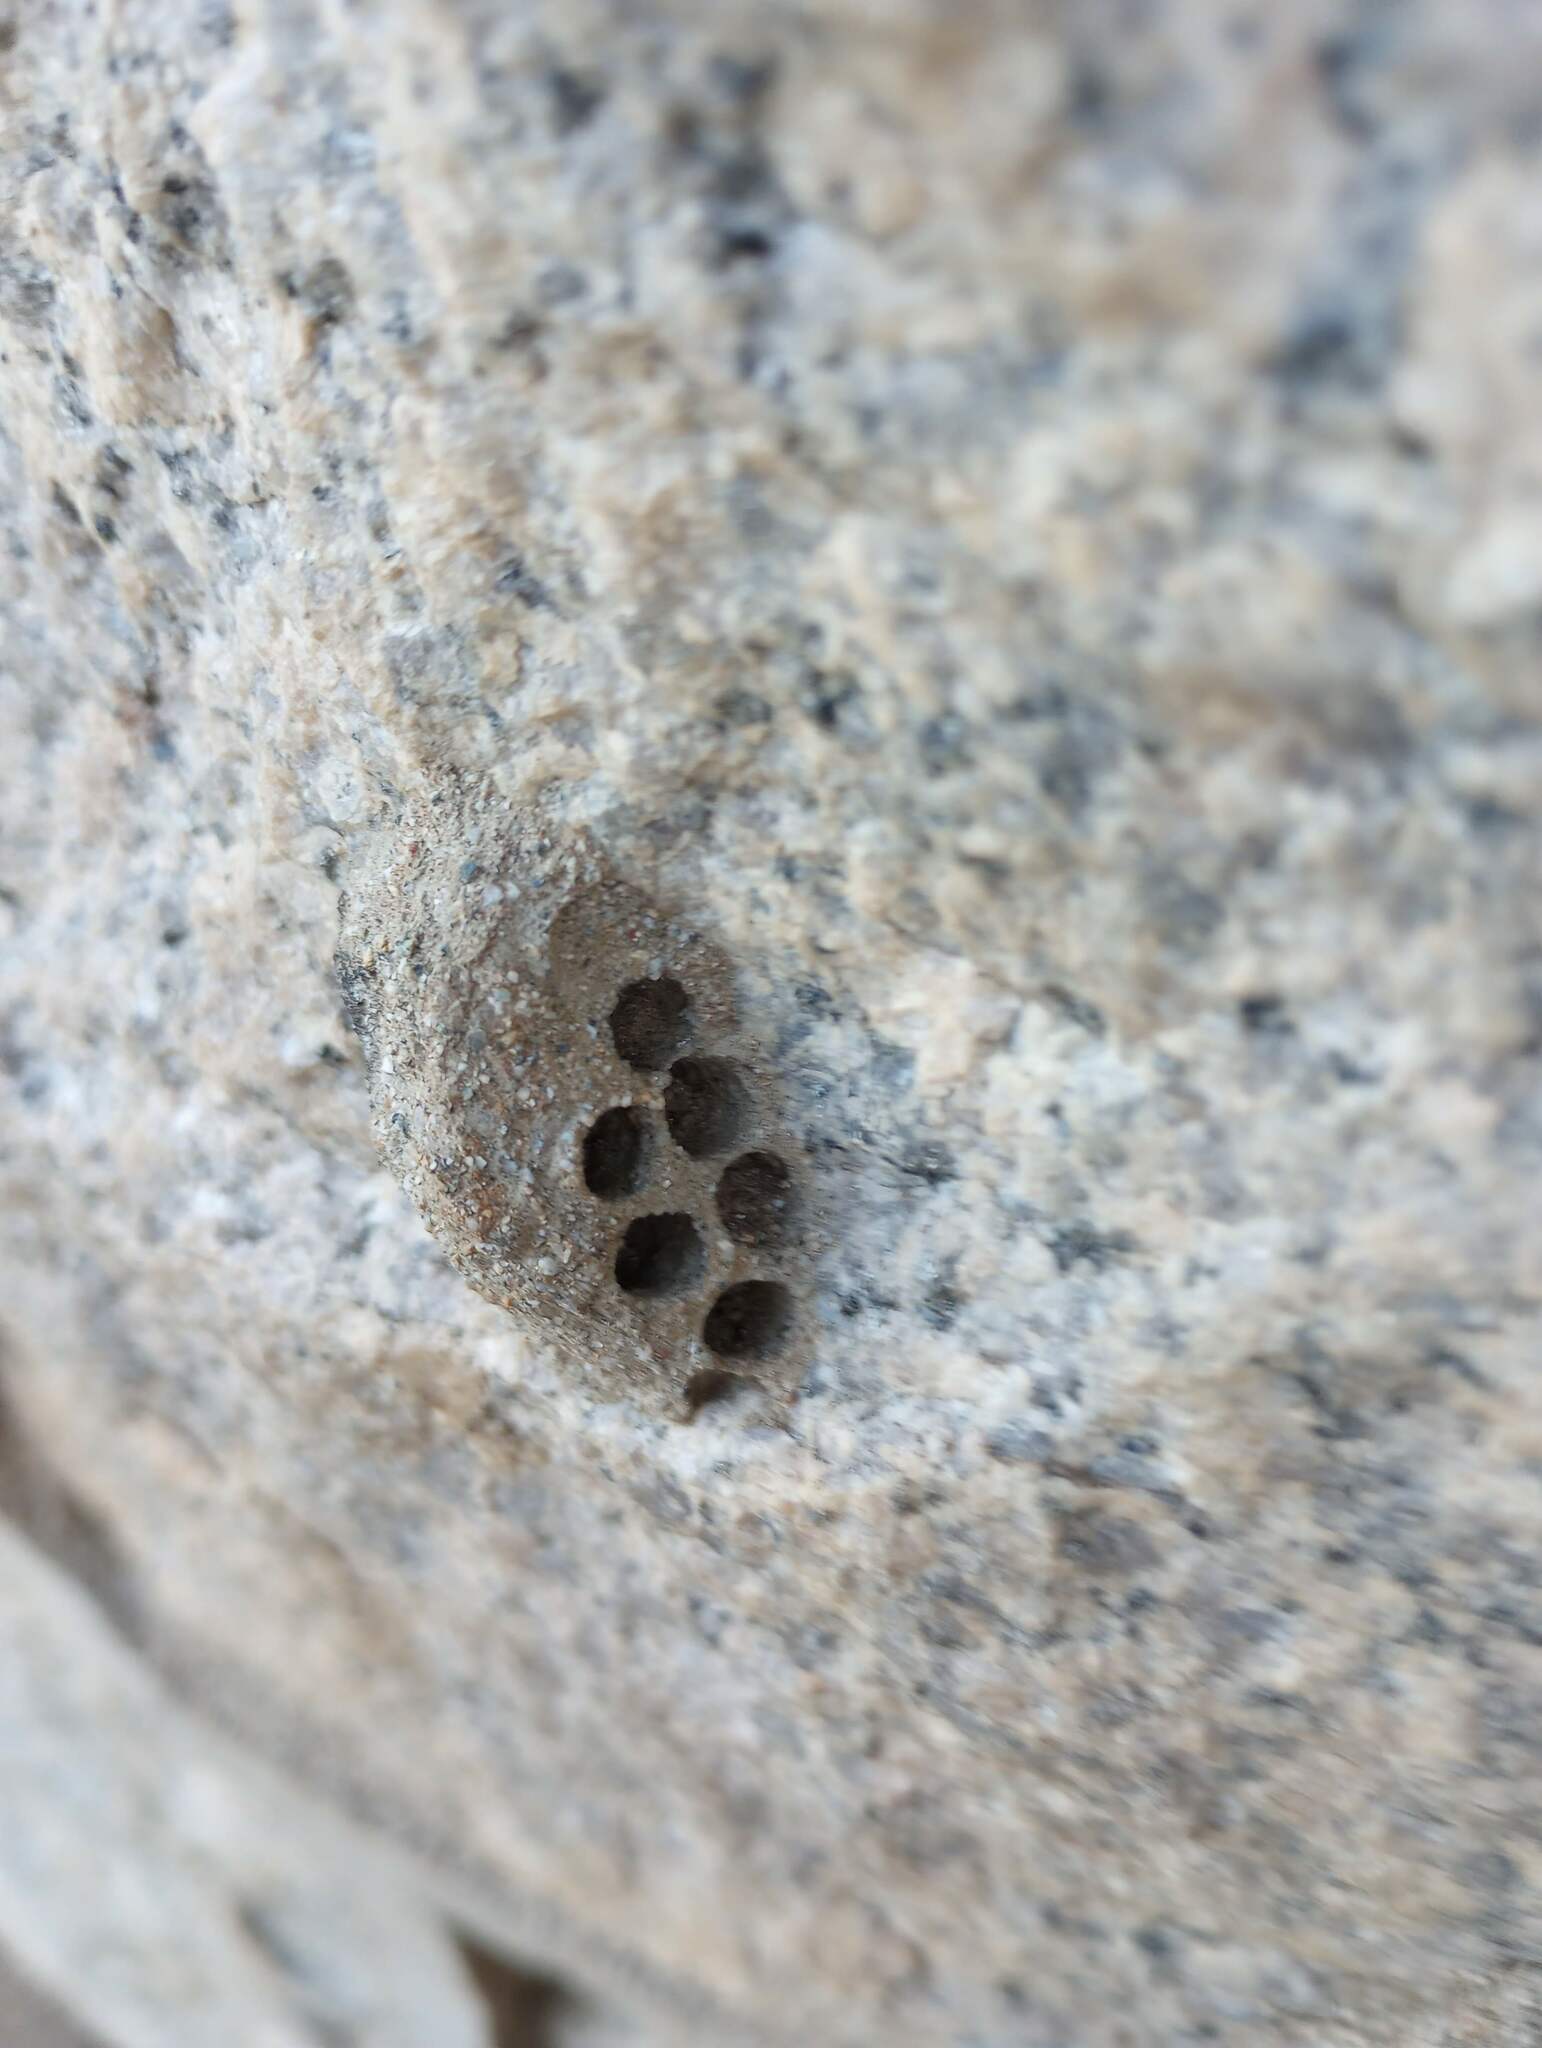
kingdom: Animalia
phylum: Arthropoda
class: Insecta
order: Hymenoptera
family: Masaridae
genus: Pseudomasaris
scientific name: Pseudomasaris
